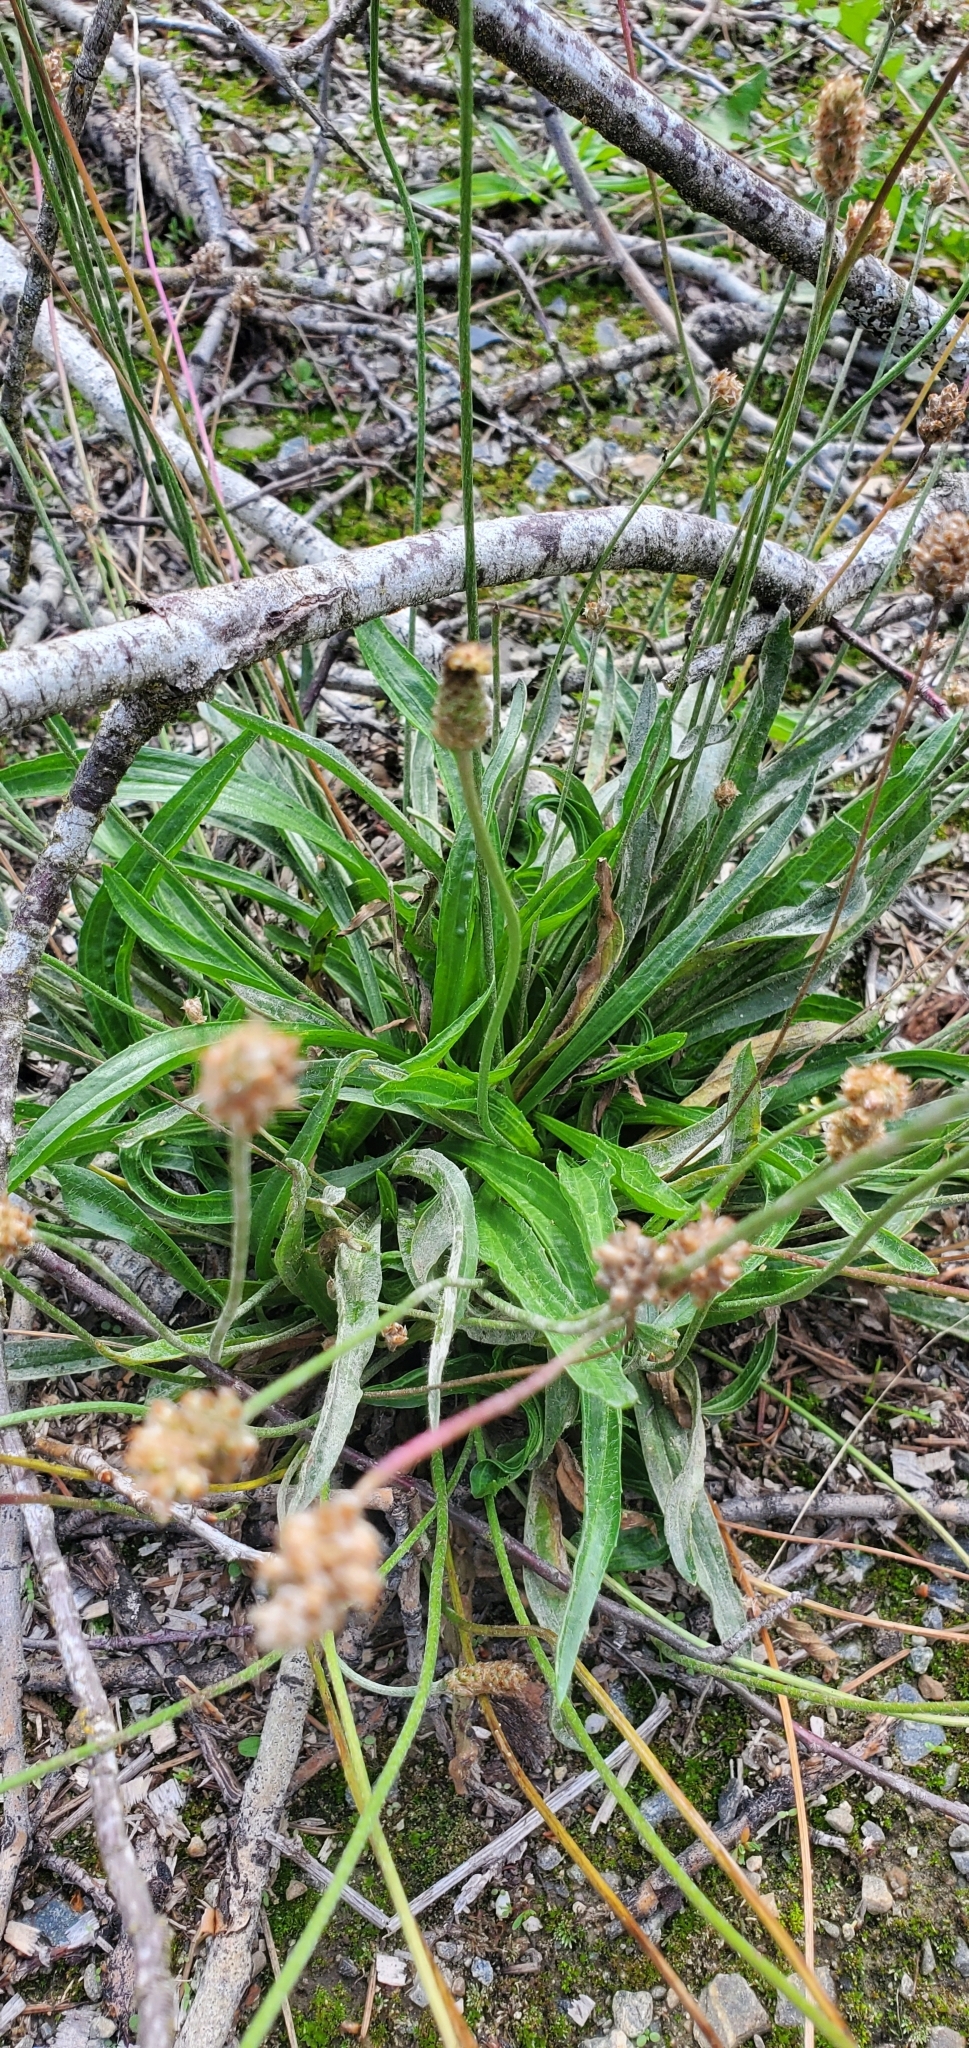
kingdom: Plantae
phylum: Tracheophyta
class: Magnoliopsida
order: Lamiales
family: Plantaginaceae
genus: Plantago
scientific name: Plantago lanceolata
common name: Ribwort plantain
